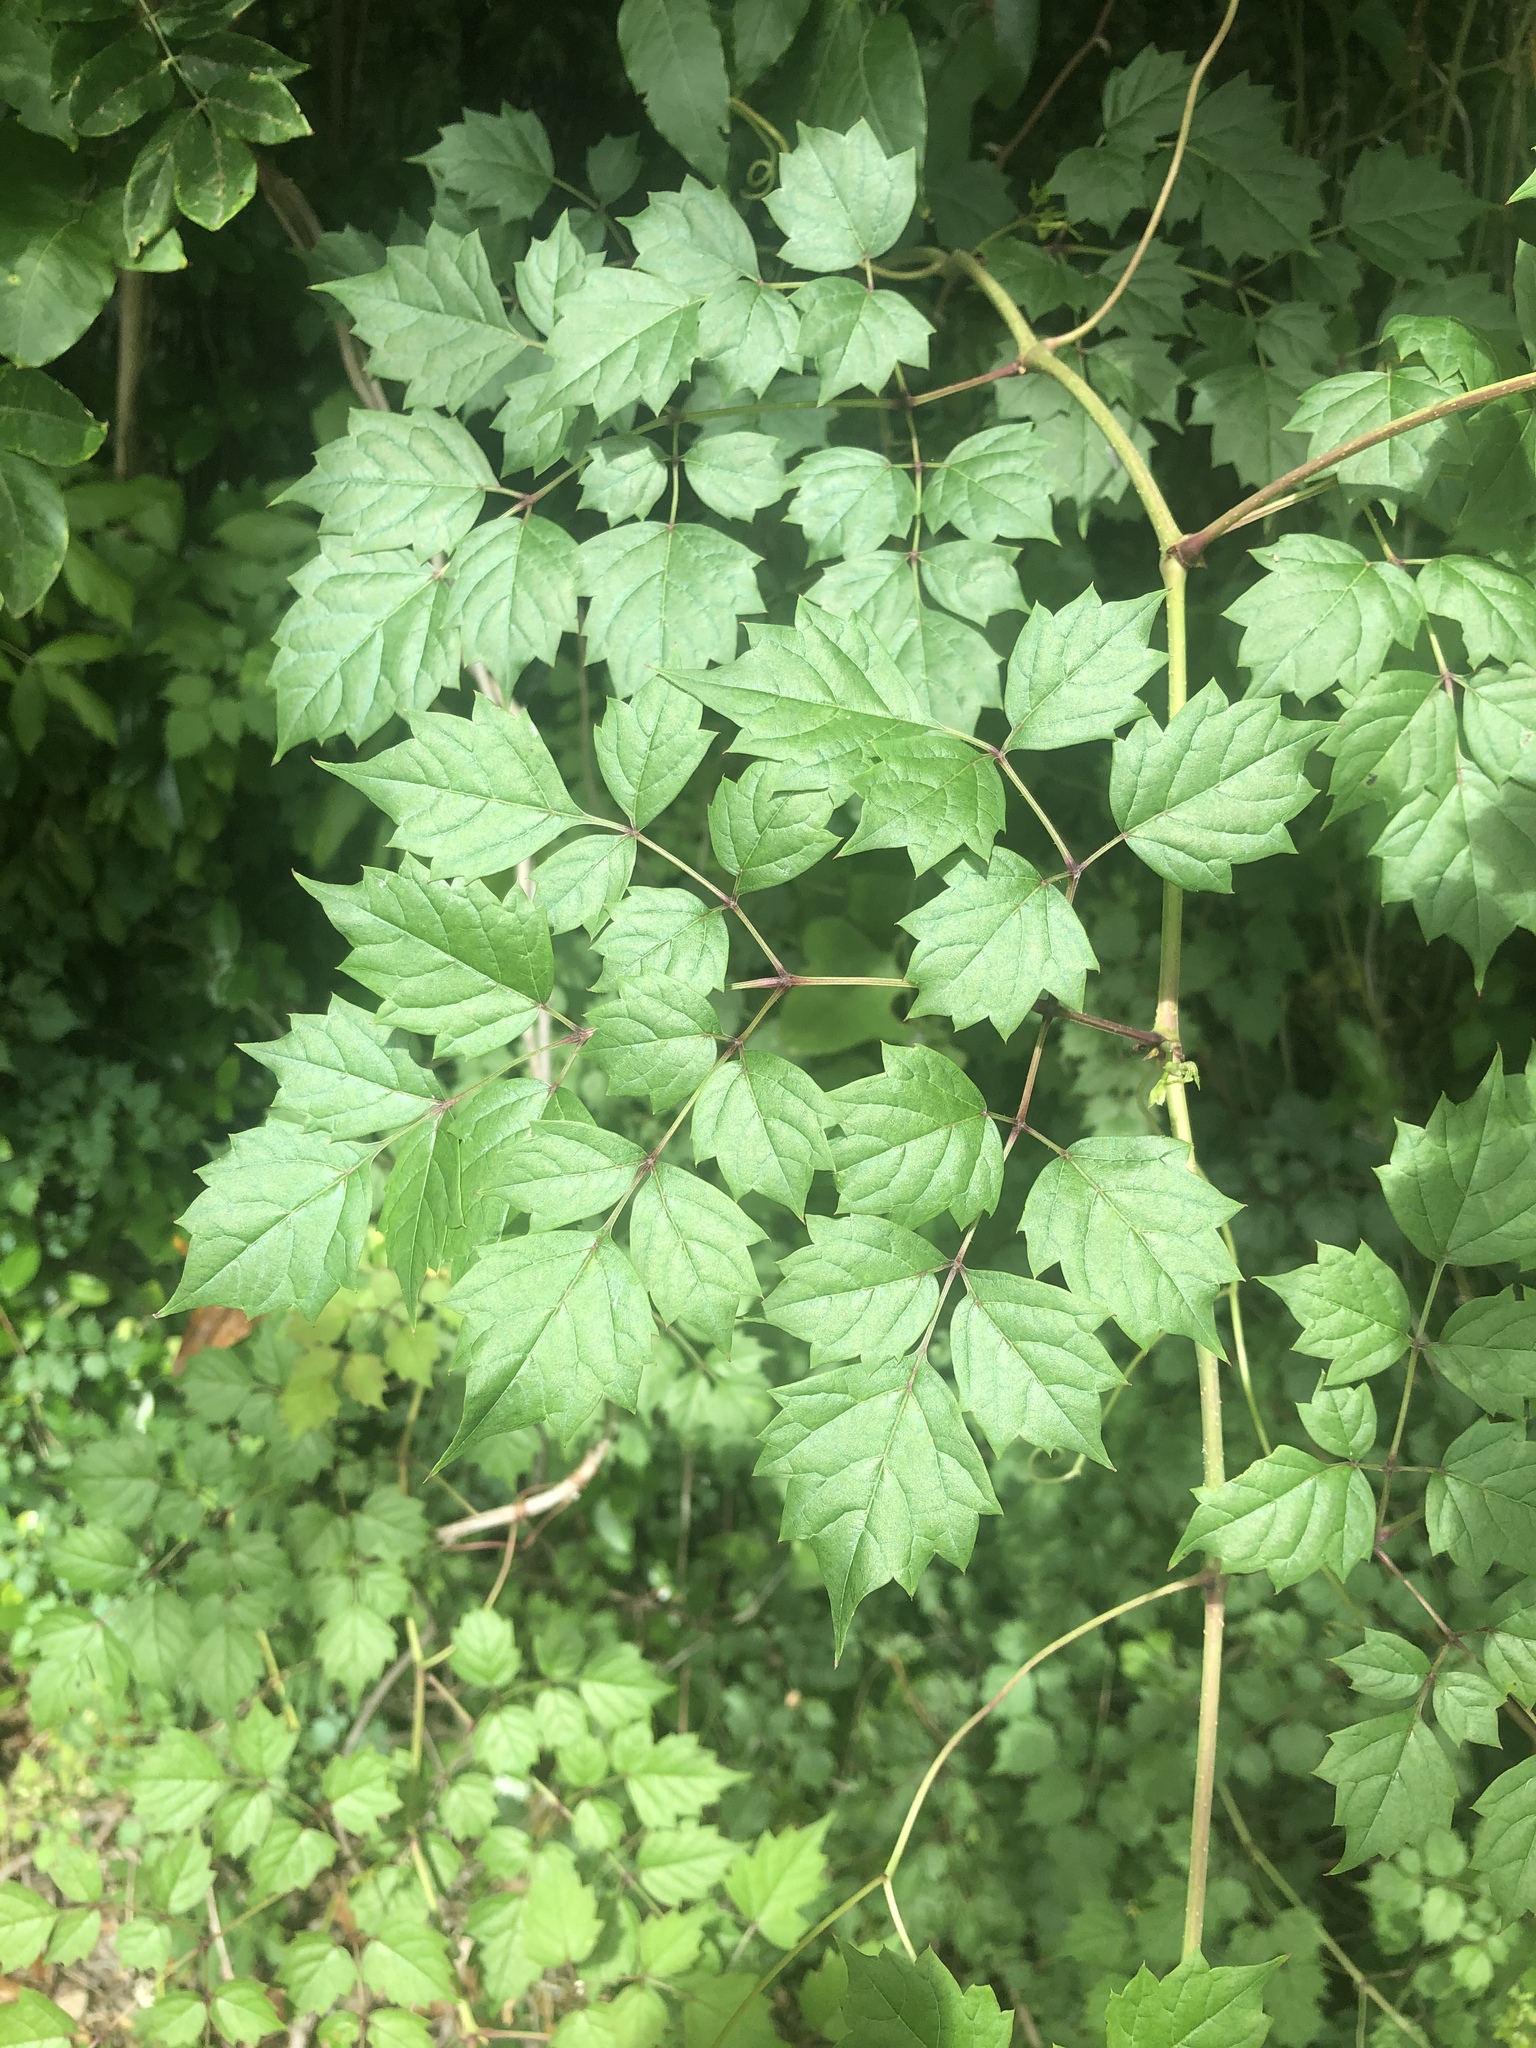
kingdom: Plantae
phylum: Tracheophyta
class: Magnoliopsida
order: Vitales
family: Vitaceae
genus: Nekemias
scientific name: Nekemias arborea
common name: Peppervine
